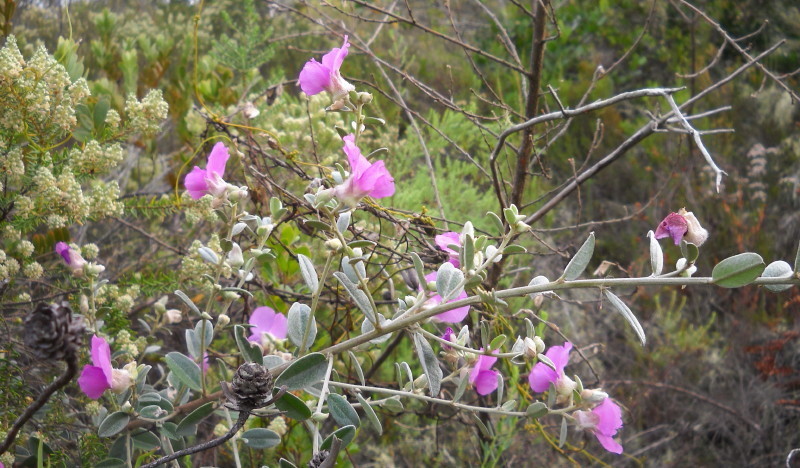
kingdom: Plantae
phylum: Tracheophyta
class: Magnoliopsida
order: Fabales
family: Fabaceae
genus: Podalyria
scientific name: Podalyria burchellii
